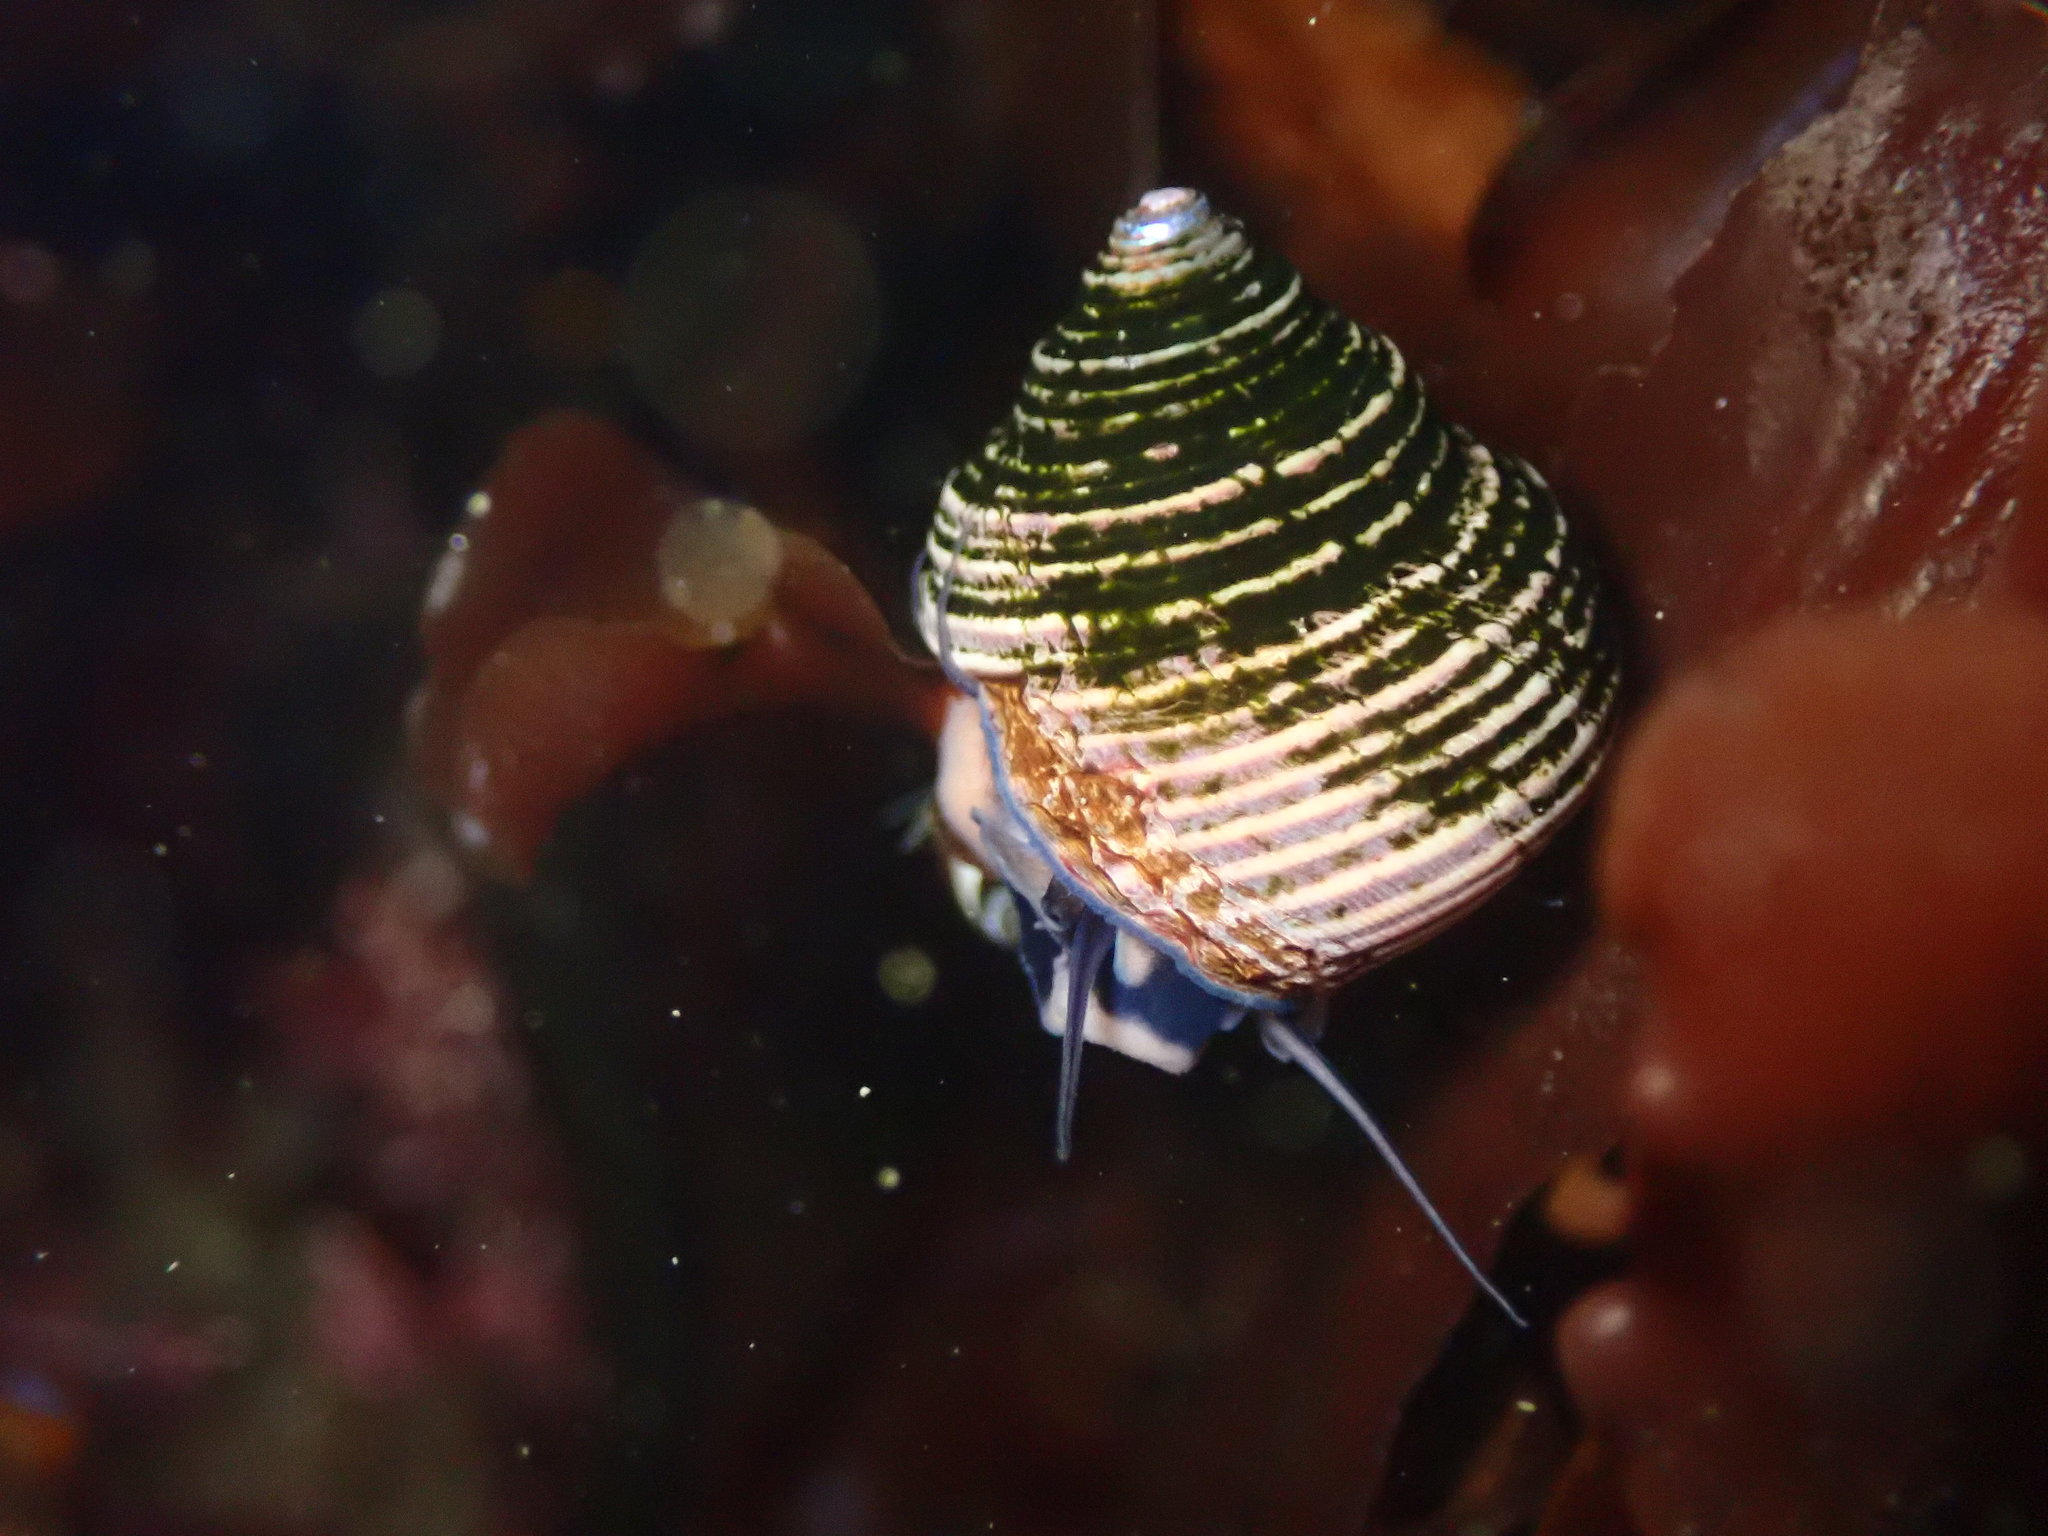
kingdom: Animalia
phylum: Mollusca
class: Gastropoda
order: Trochida
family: Calliostomatidae
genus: Calliostoma
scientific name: Calliostoma ligatum
